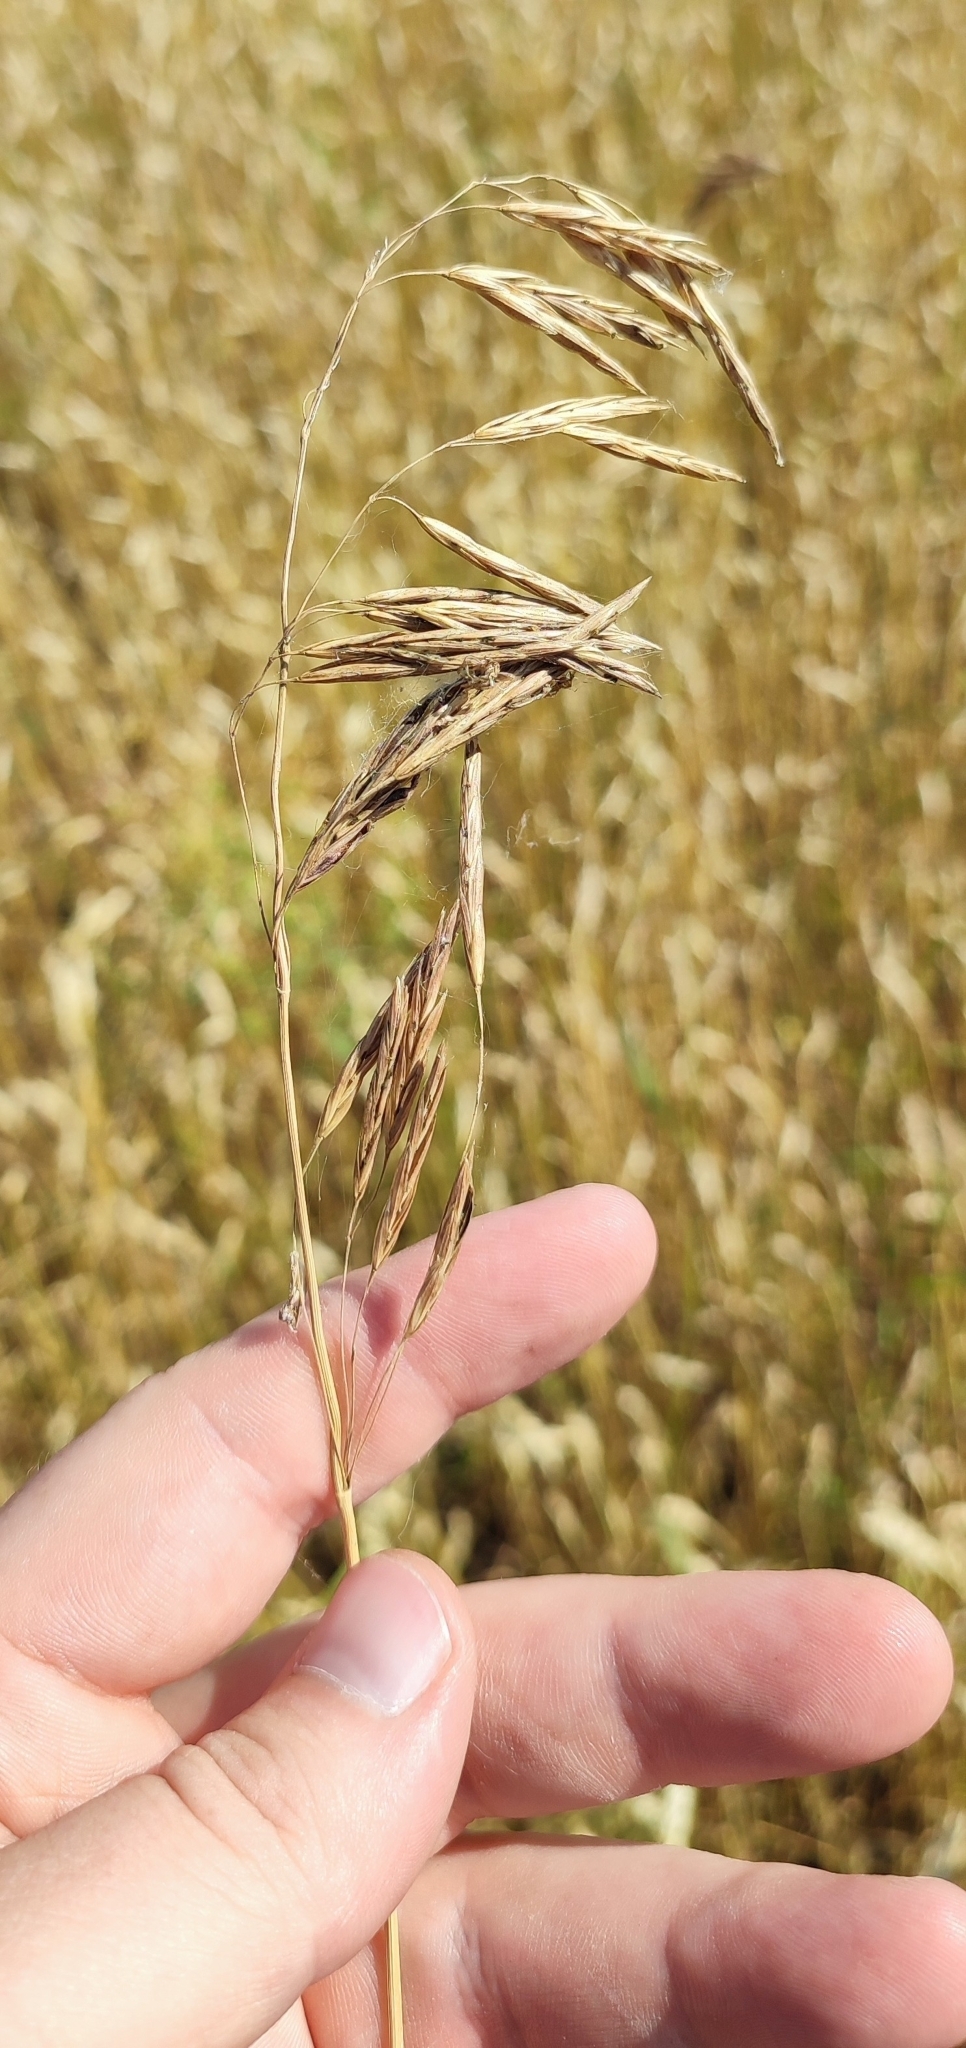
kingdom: Plantae
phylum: Tracheophyta
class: Liliopsida
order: Poales
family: Poaceae
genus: Bromus
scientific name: Bromus inermis
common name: Smooth brome
